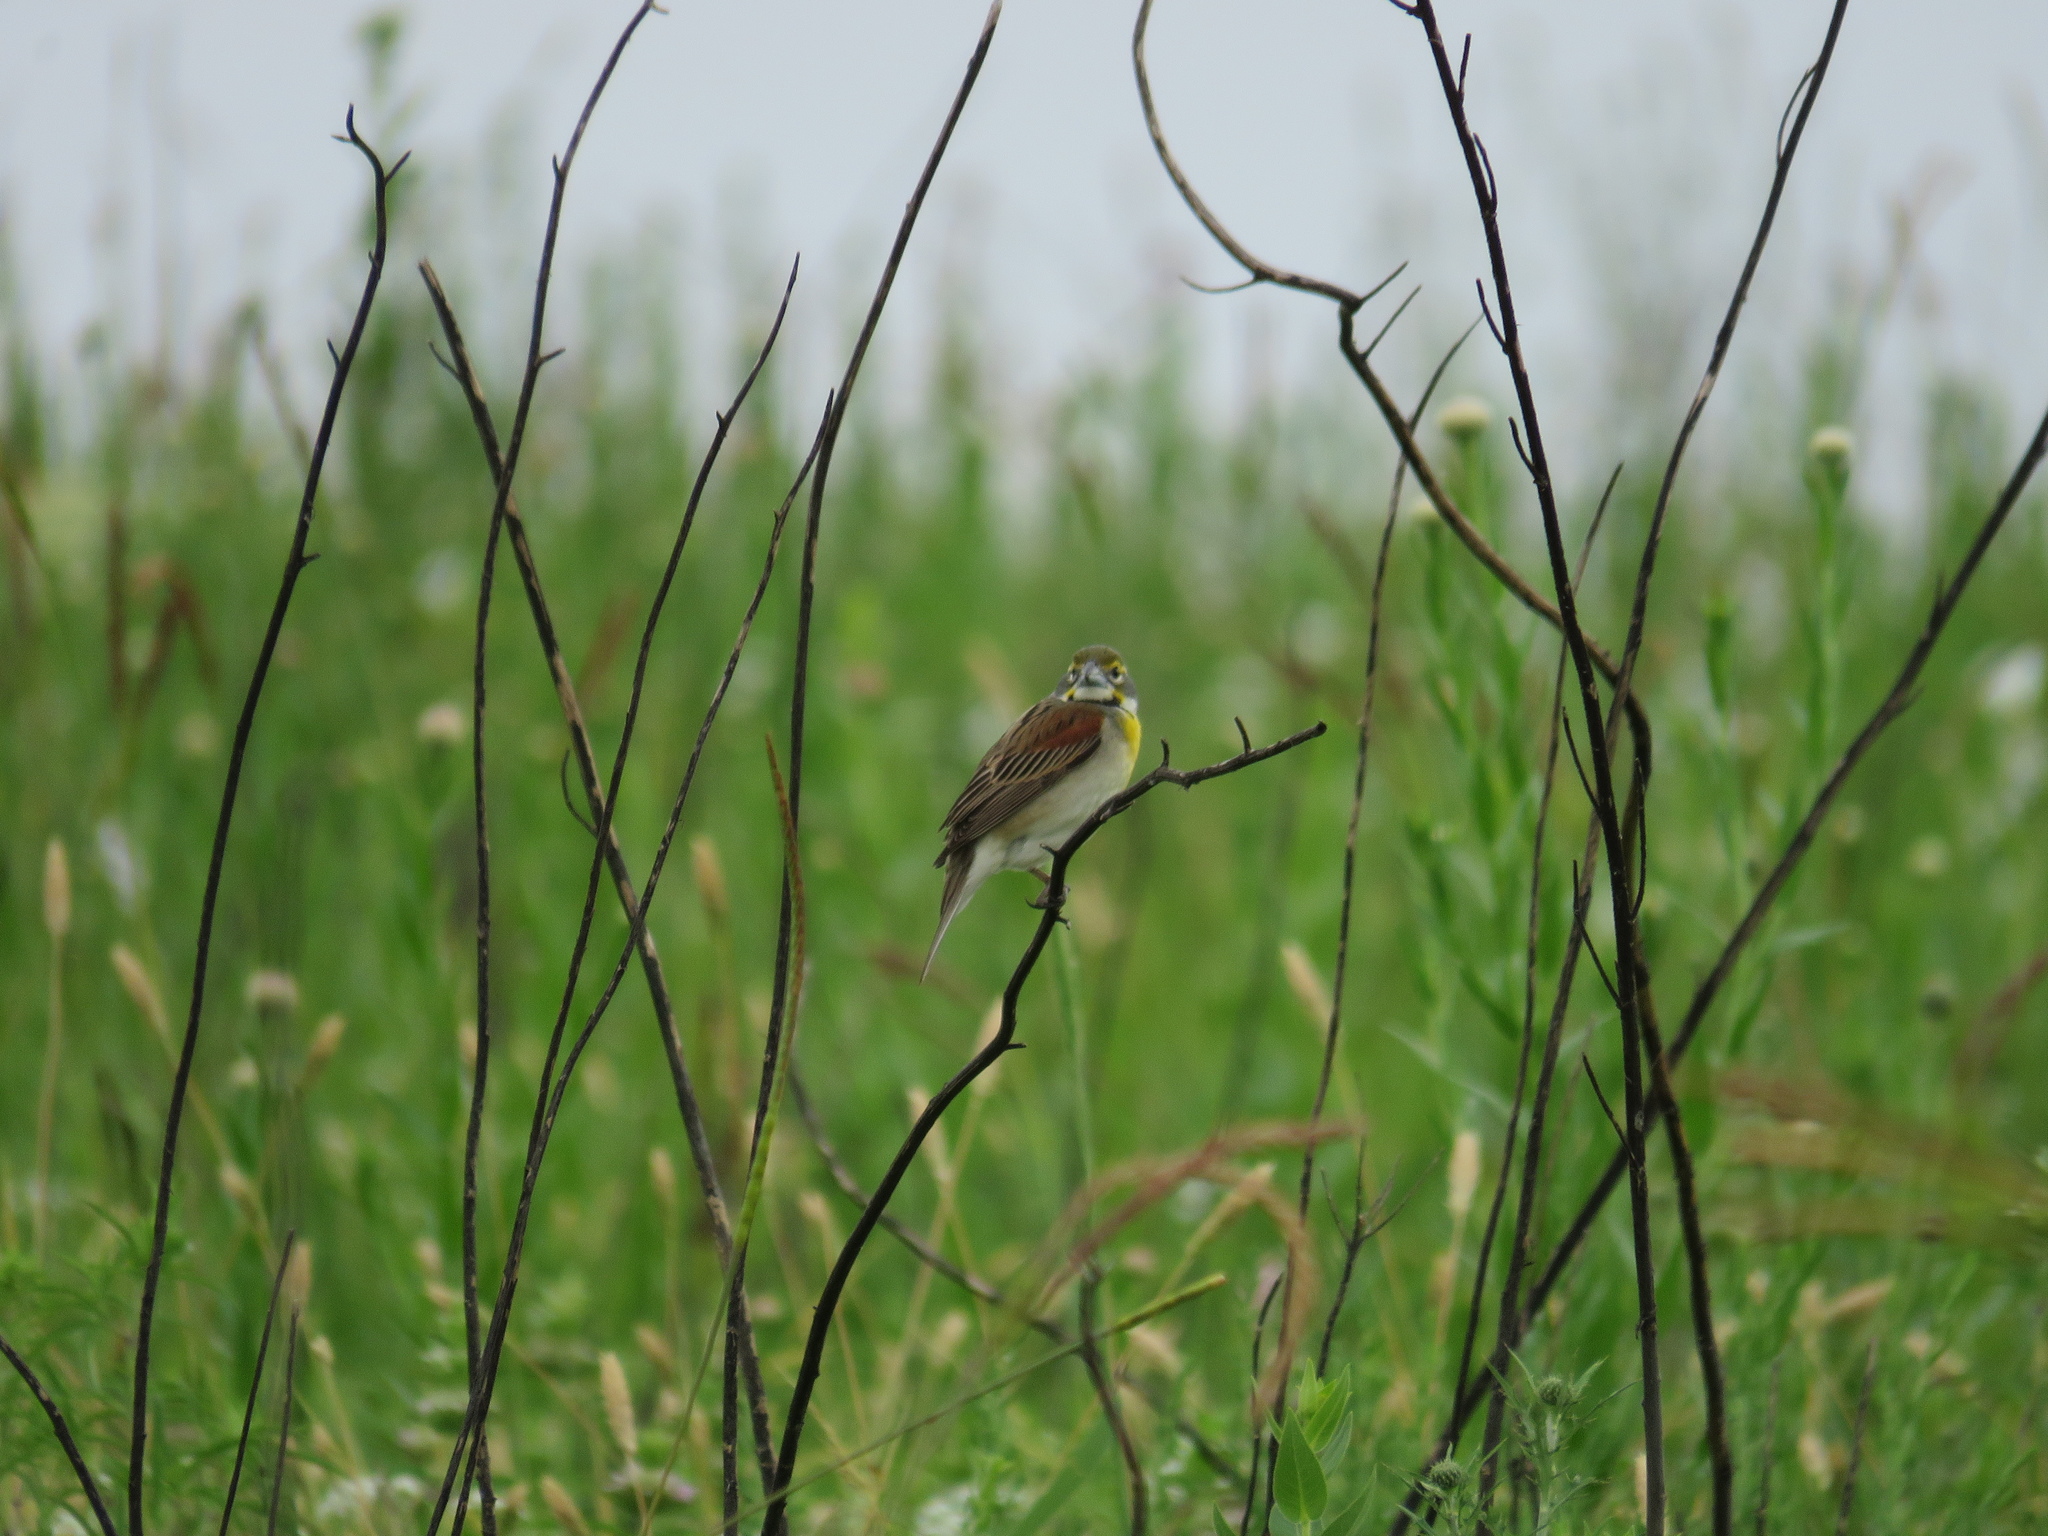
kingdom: Animalia
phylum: Chordata
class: Aves
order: Passeriformes
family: Cardinalidae
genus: Spiza
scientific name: Spiza americana
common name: Dickcissel
